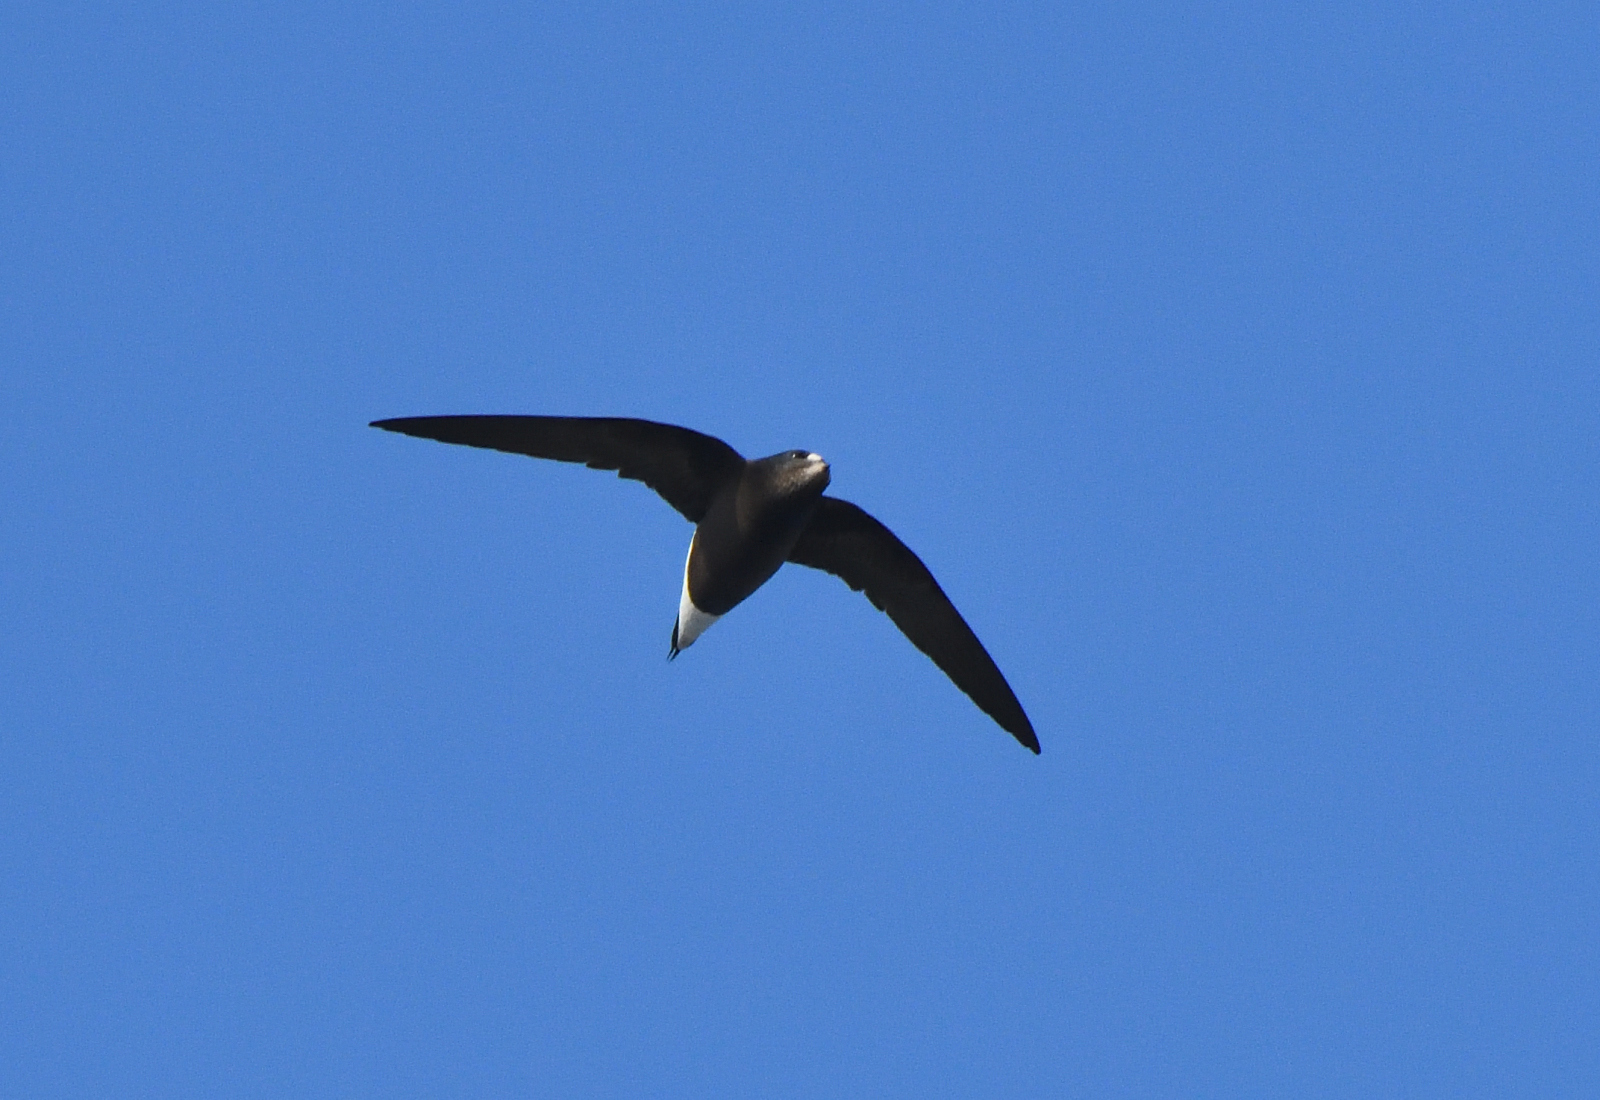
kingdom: Animalia
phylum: Chordata
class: Aves
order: Apodiformes
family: Apodidae
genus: Hirundapus
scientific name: Hirundapus giganteus
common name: Brown-backed needletail
